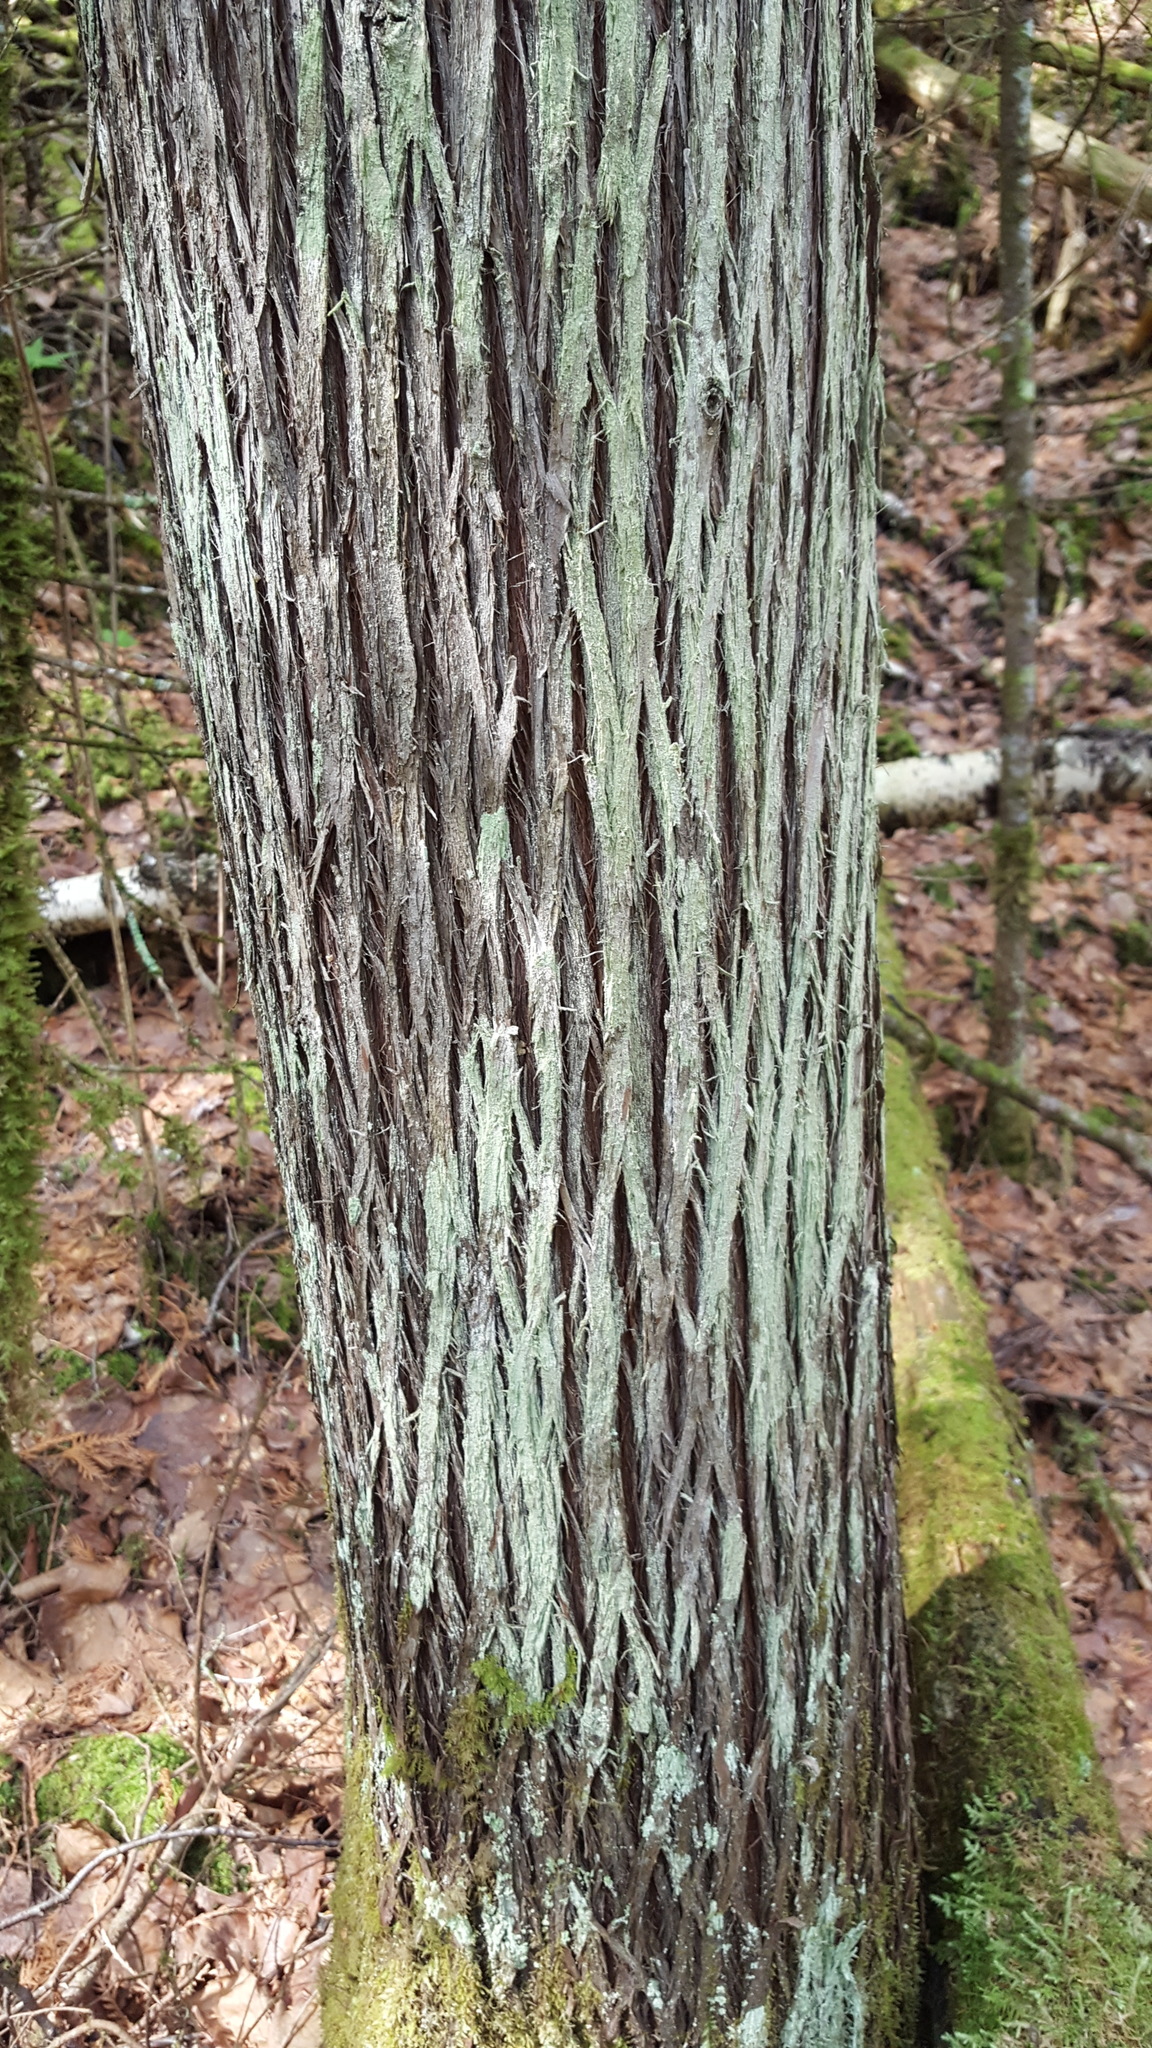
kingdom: Fungi
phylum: Ascomycota
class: Lecanoromycetes
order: Lecanorales
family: Stereocaulaceae
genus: Lepraria
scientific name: Lepraria lobificans
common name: Fluffy dust lichen
